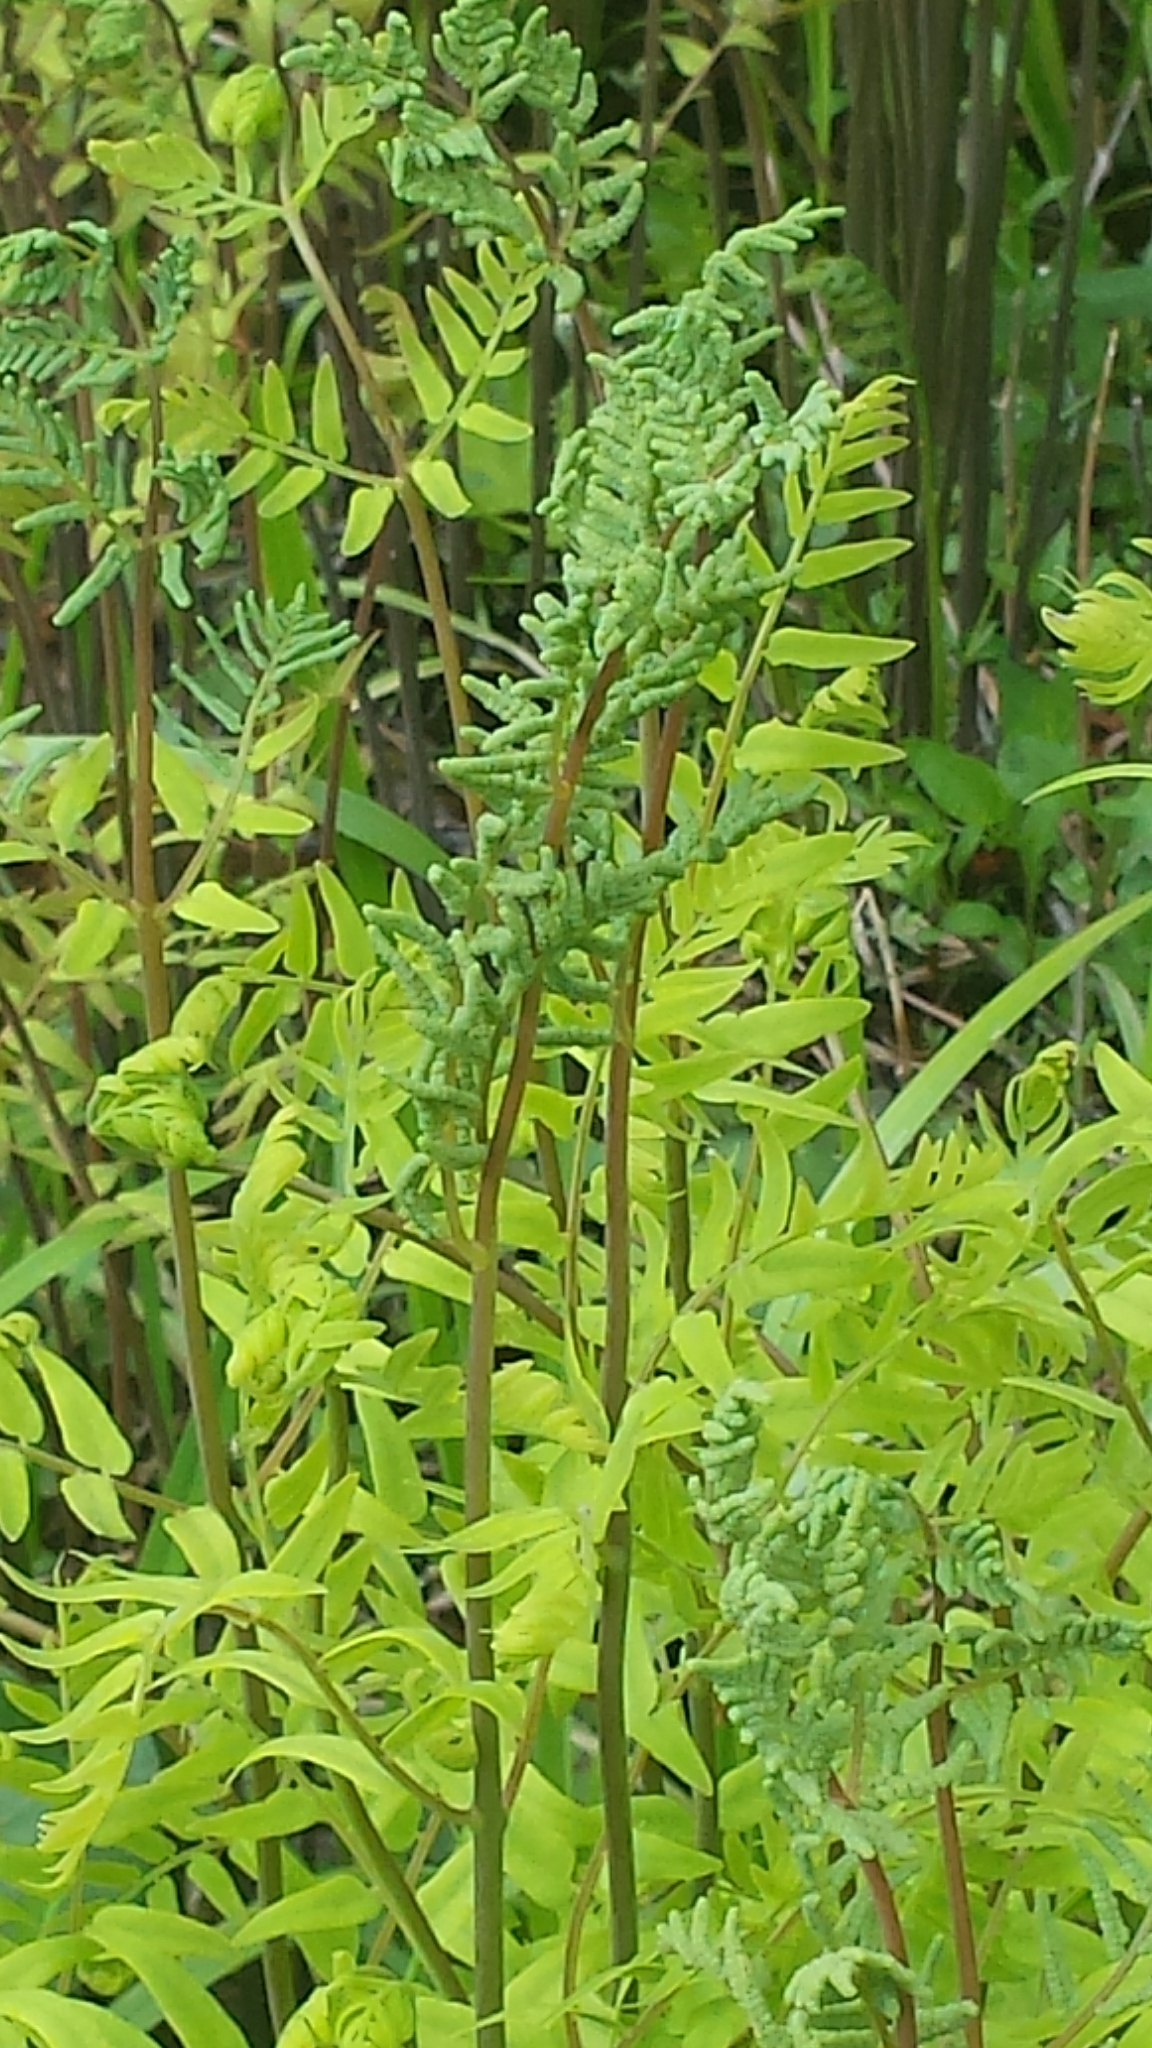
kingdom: Plantae
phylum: Tracheophyta
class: Polypodiopsida
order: Osmundales
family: Osmundaceae
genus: Osmunda
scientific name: Osmunda spectabilis
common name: American royal fern
